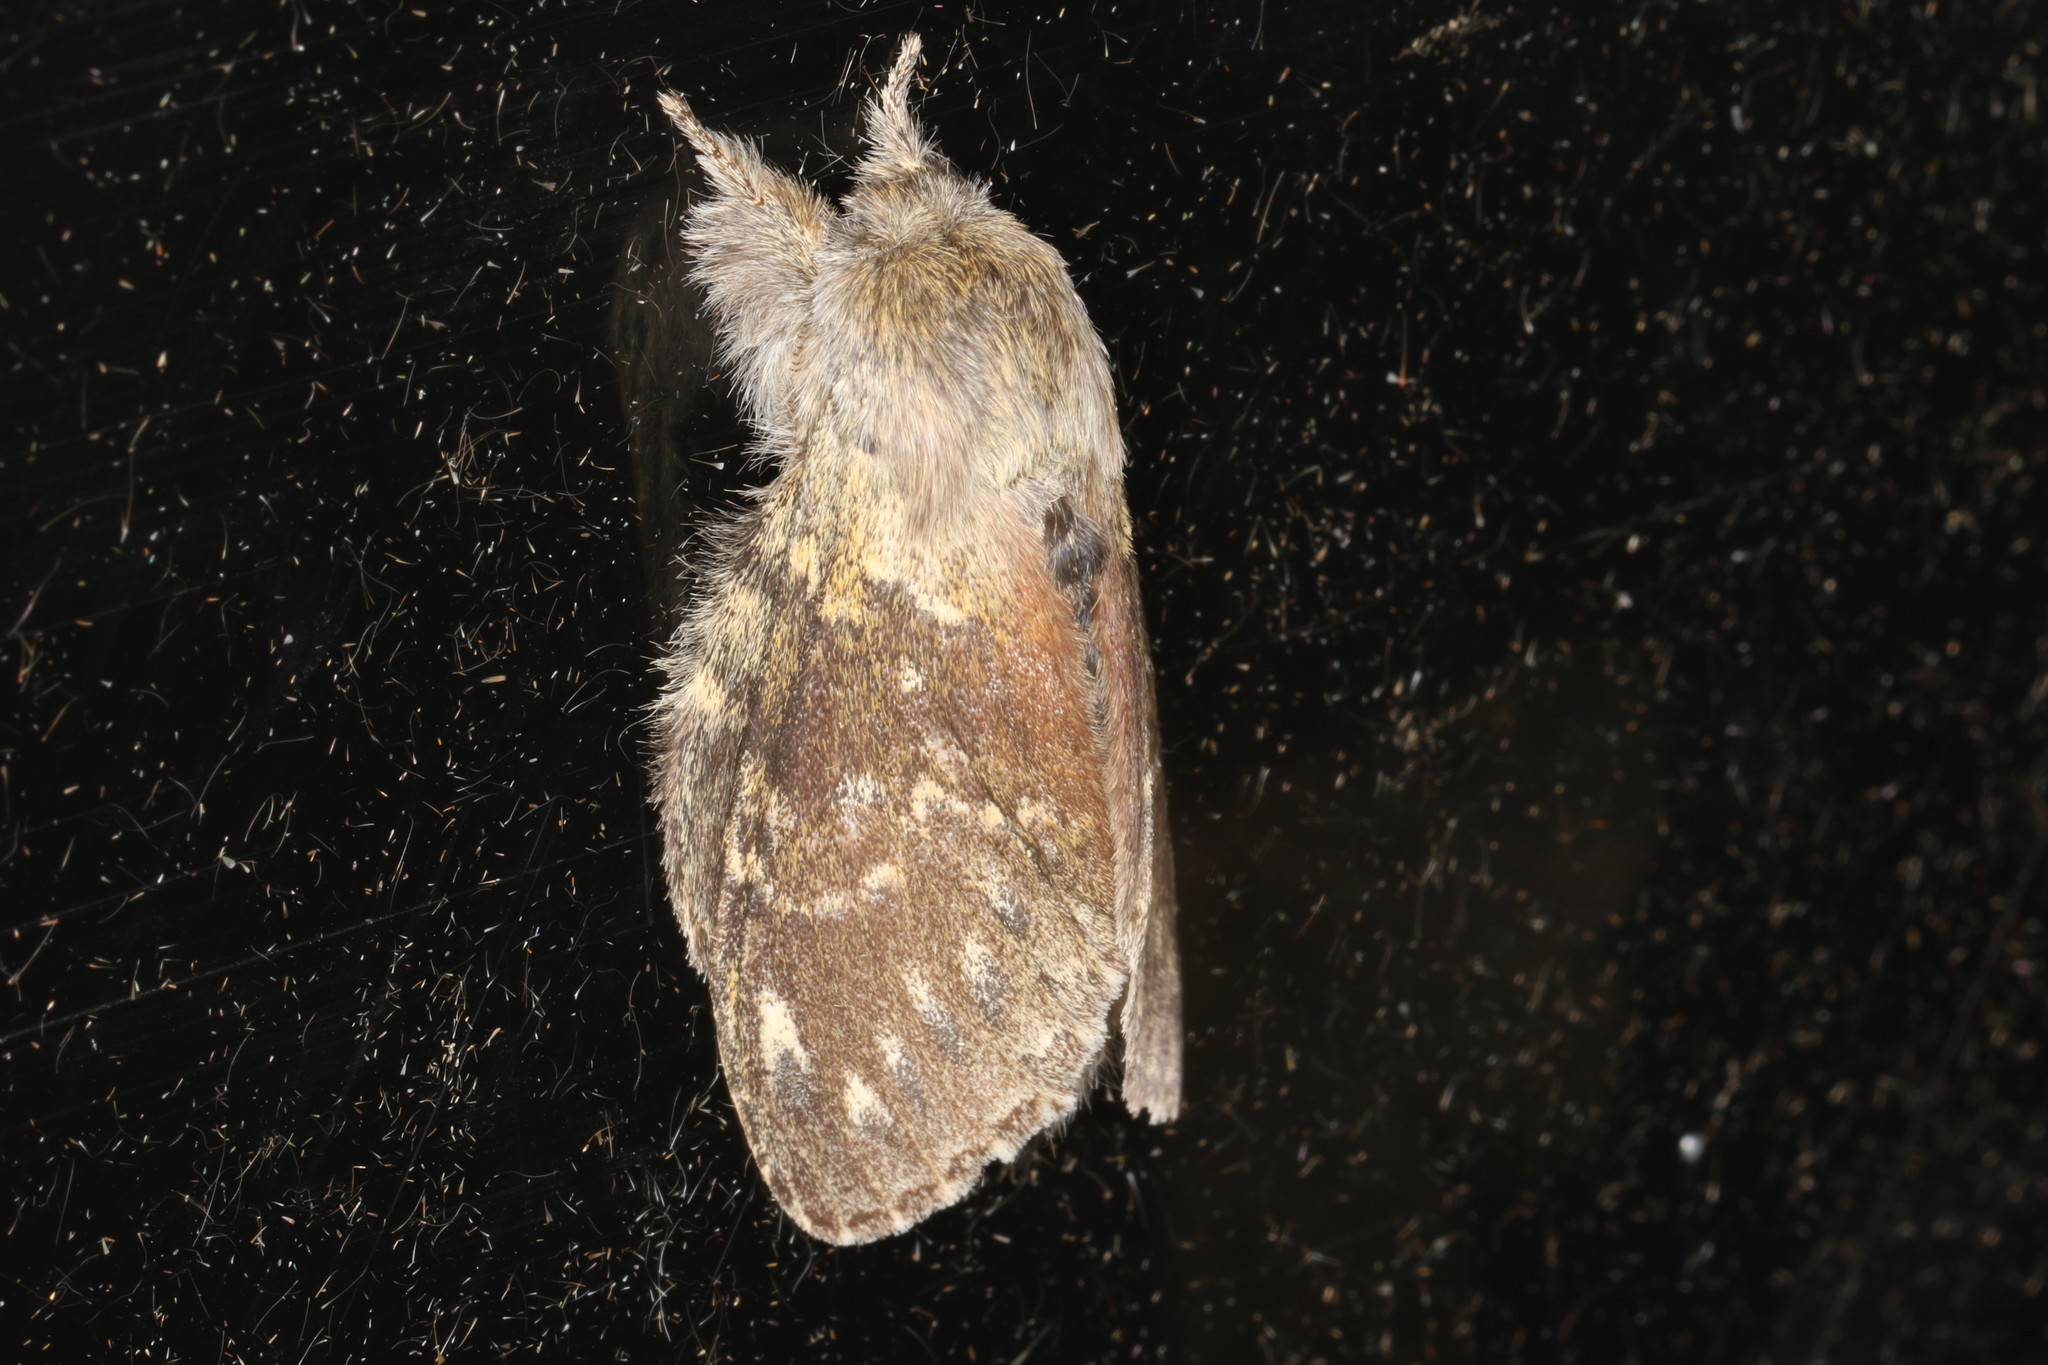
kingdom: Animalia
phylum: Arthropoda
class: Insecta
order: Lepidoptera
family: Notodontidae
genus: Stauropus
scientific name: Stauropus fagi
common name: Lobster moth
